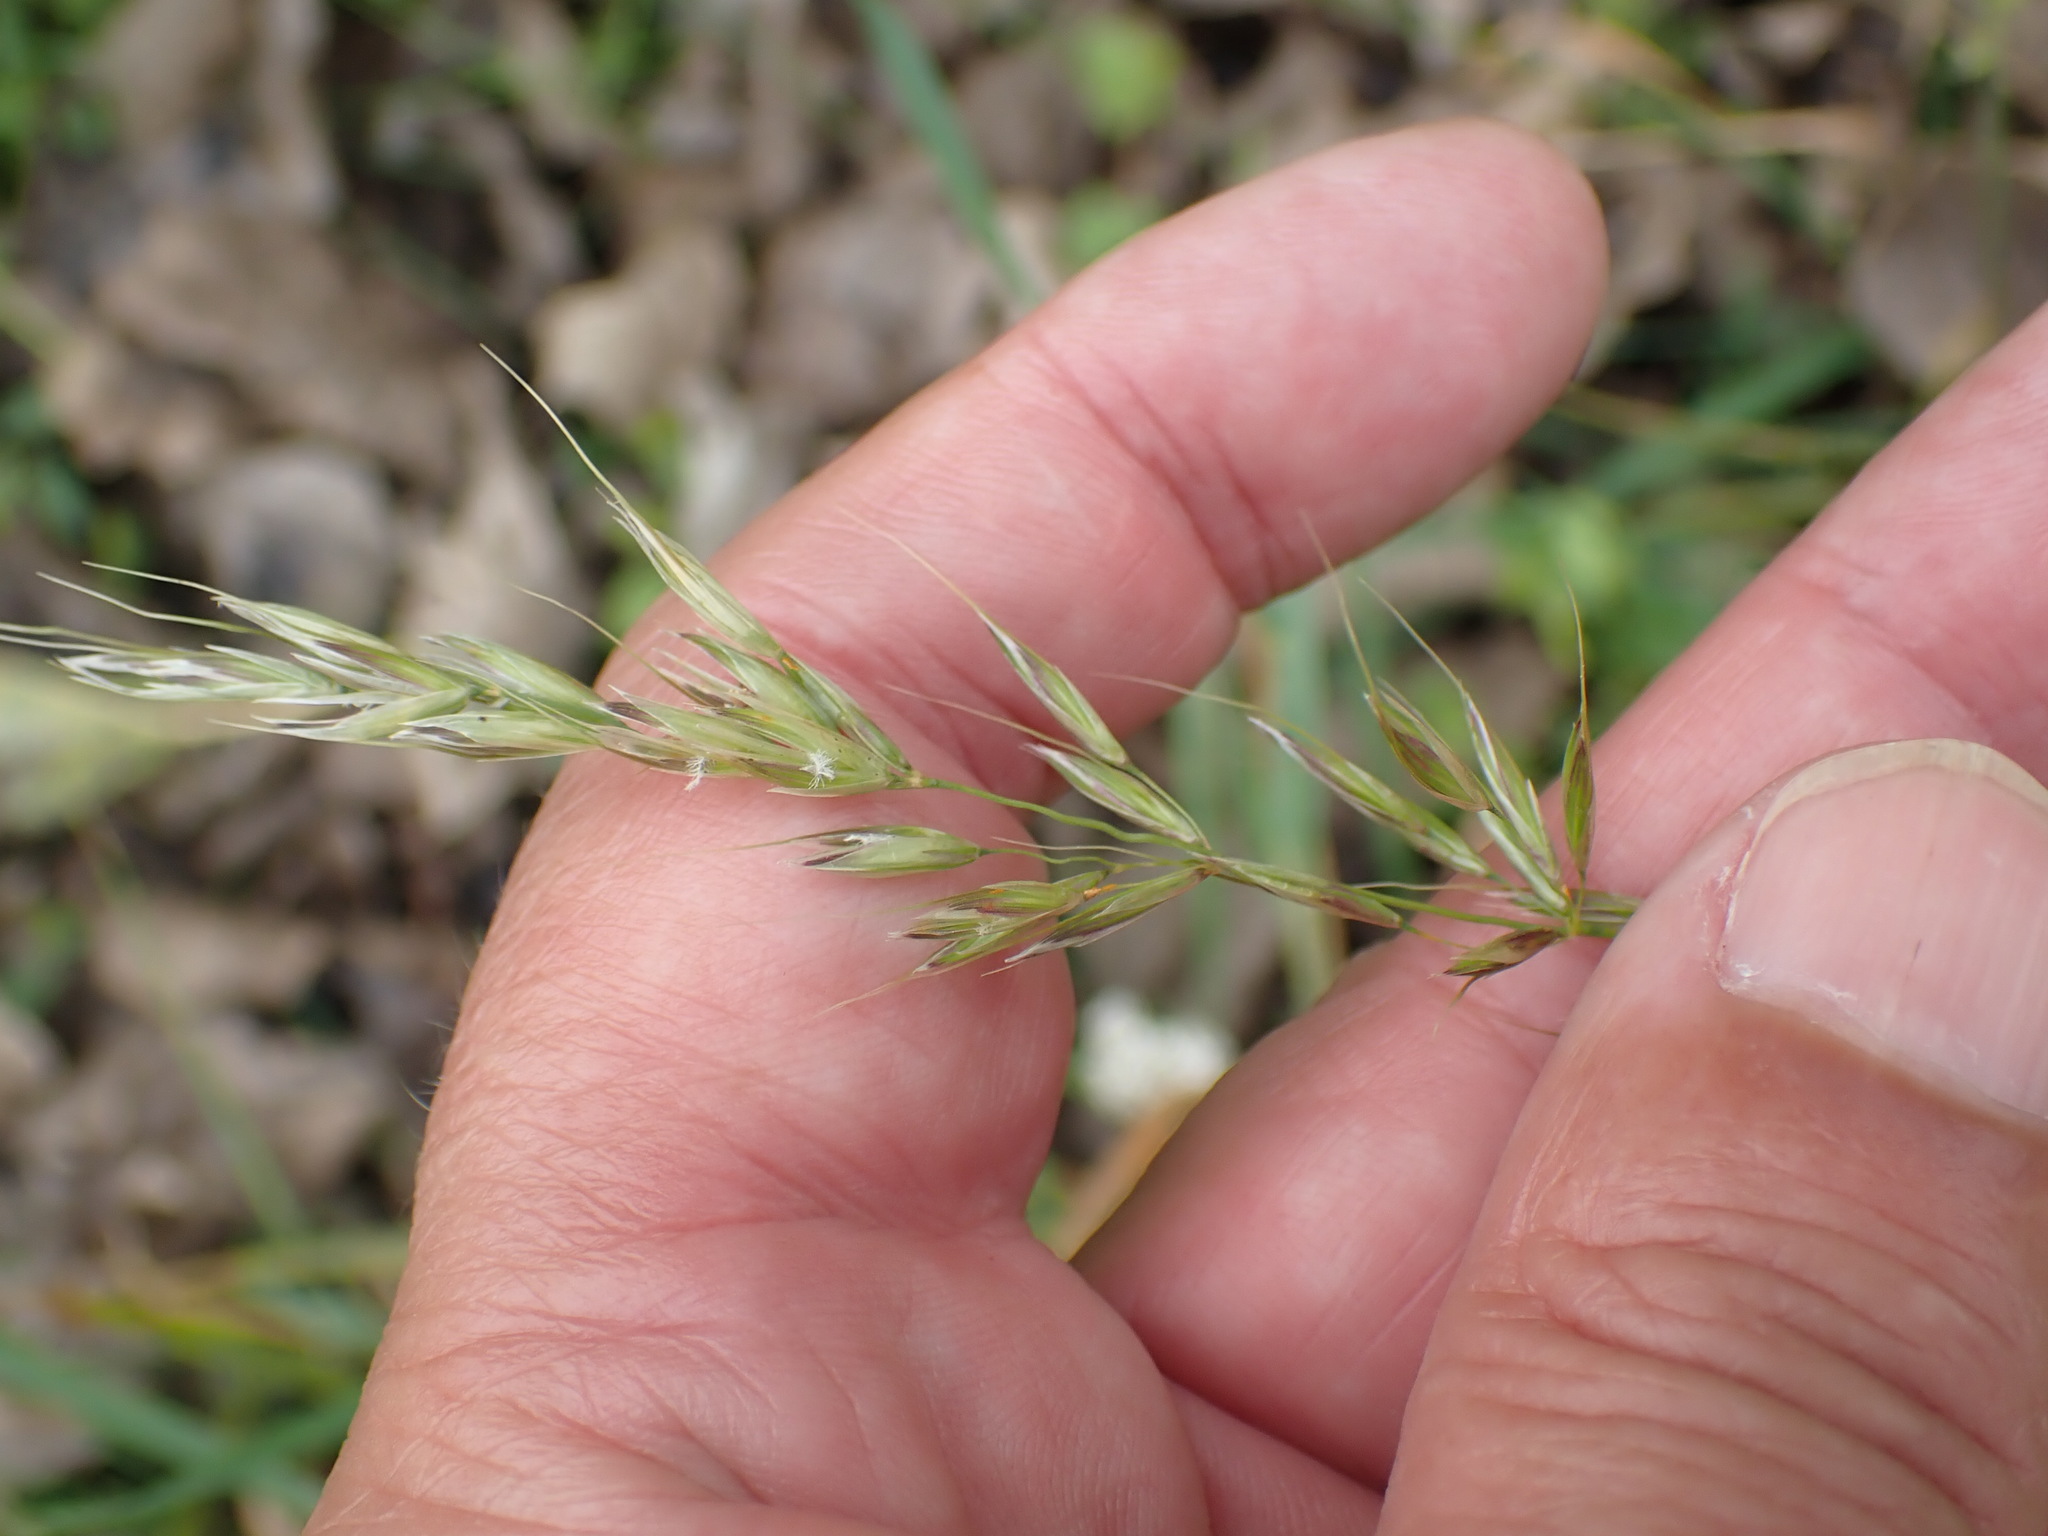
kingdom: Plantae
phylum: Tracheophyta
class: Liliopsida
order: Poales
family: Poaceae
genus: Arrhenatherum
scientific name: Arrhenatherum elatius
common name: Tall oatgrass
